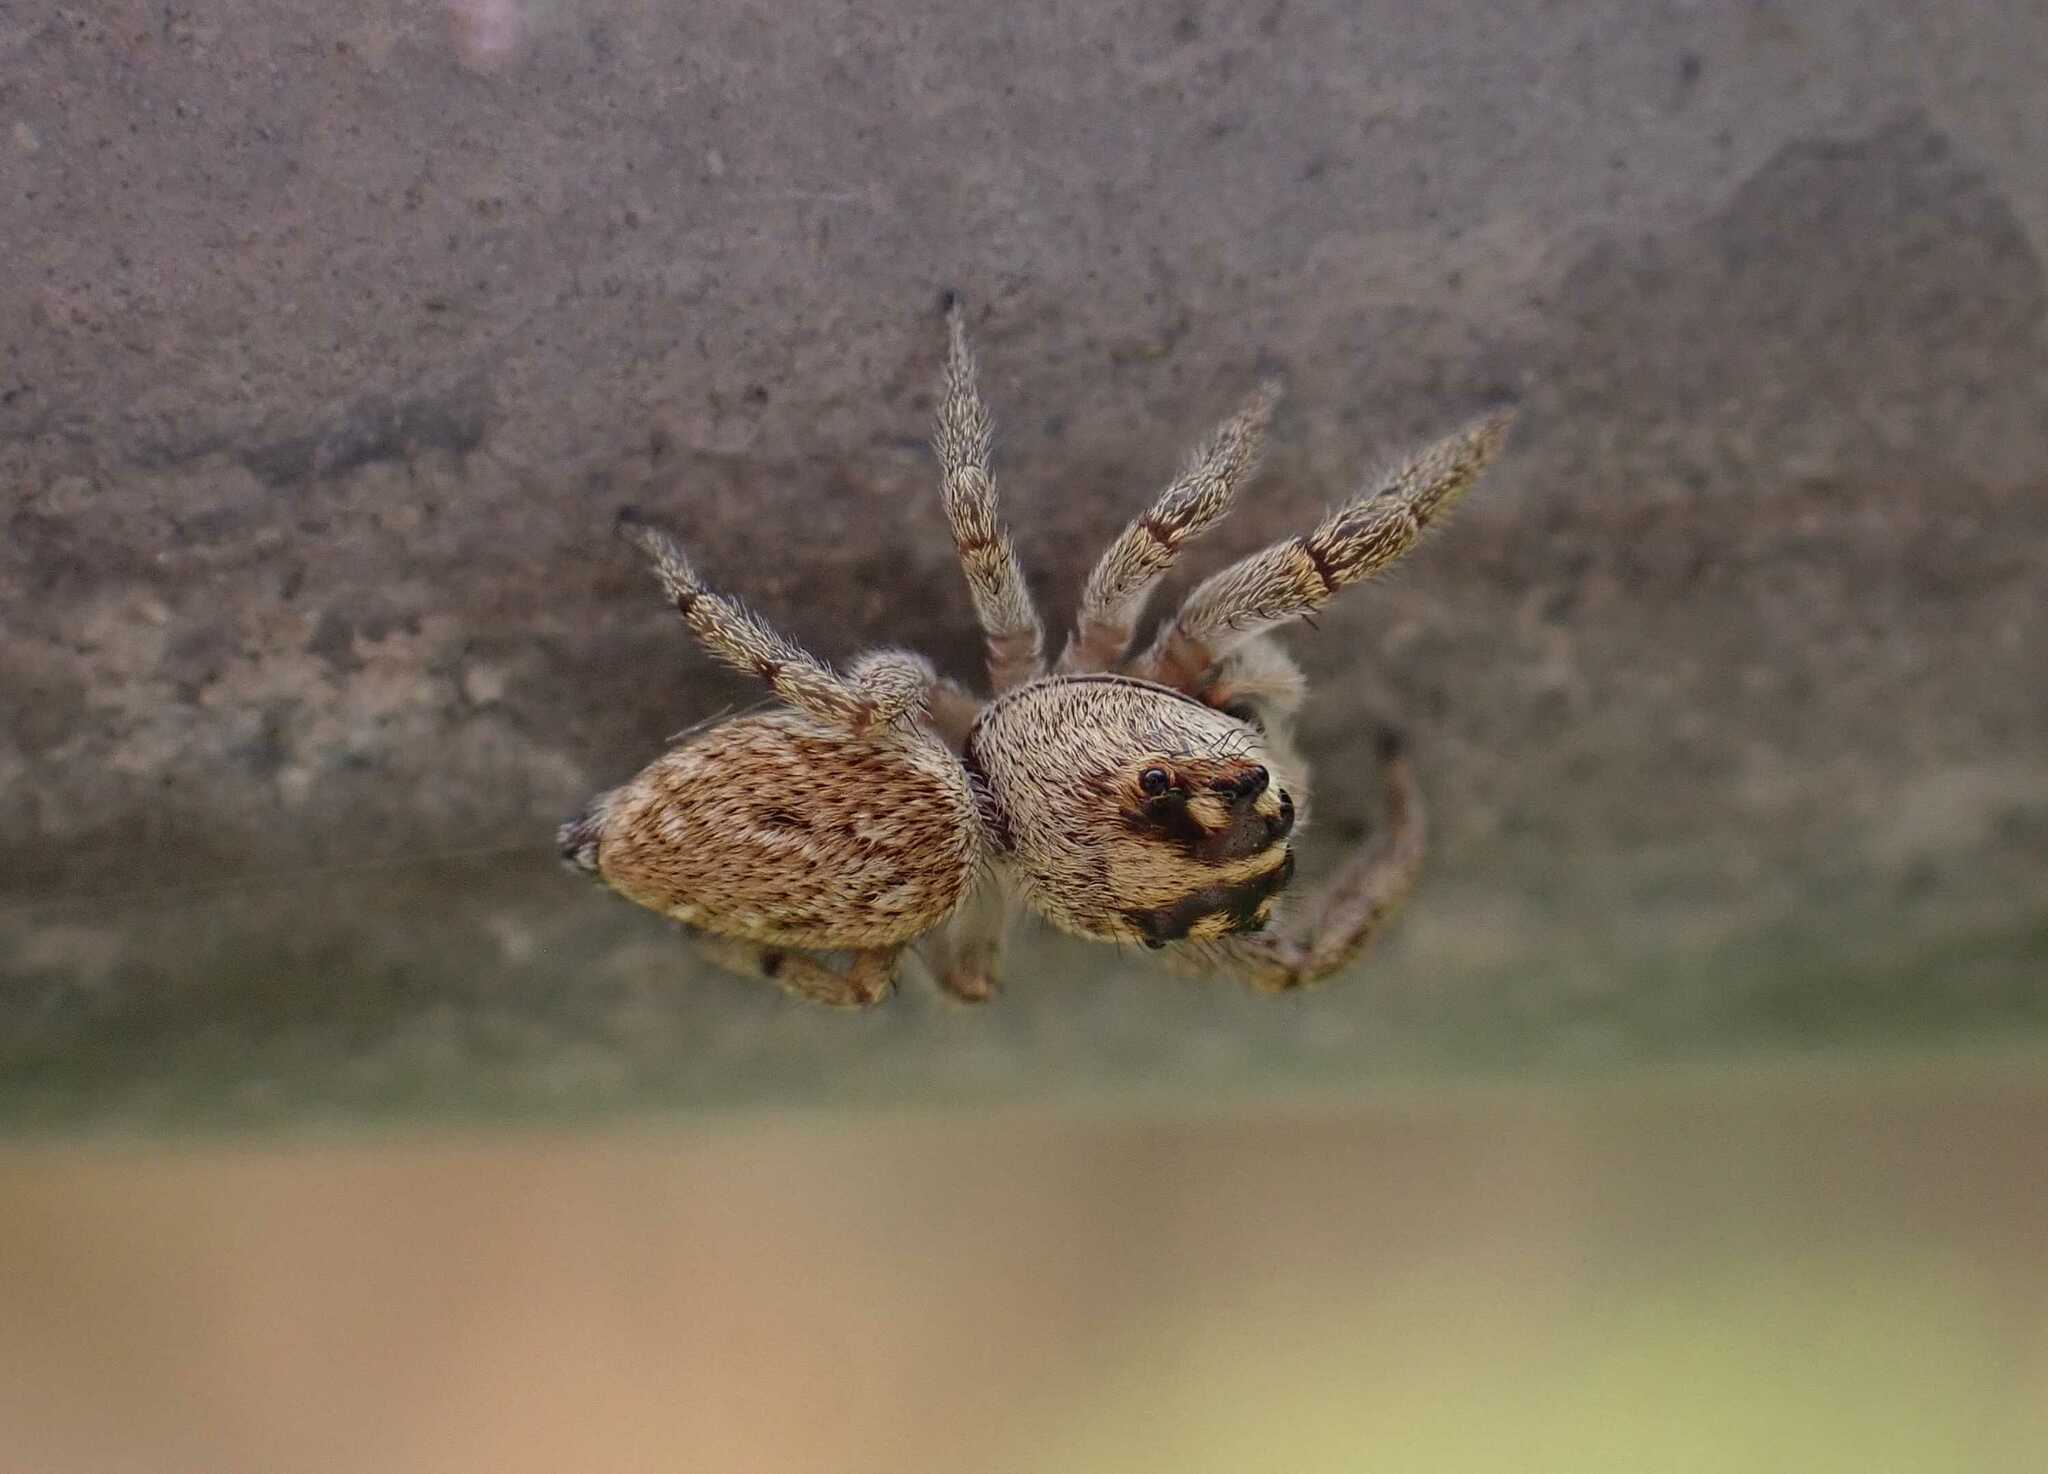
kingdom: Animalia
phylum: Arthropoda
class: Arachnida
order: Araneae
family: Salticidae
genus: Macaroeris
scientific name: Macaroeris nidicolens
